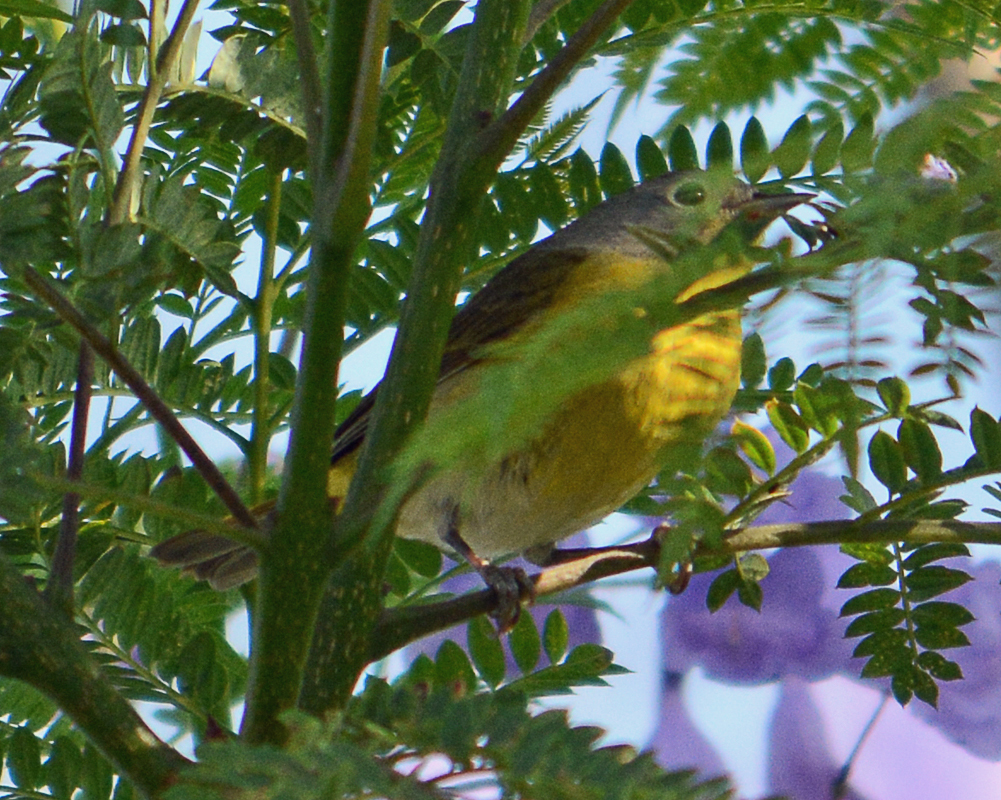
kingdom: Animalia
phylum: Chordata
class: Aves
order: Passeriformes
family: Parulidae
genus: Leiothlypis
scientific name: Leiothlypis ruficapilla
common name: Nashville warbler
